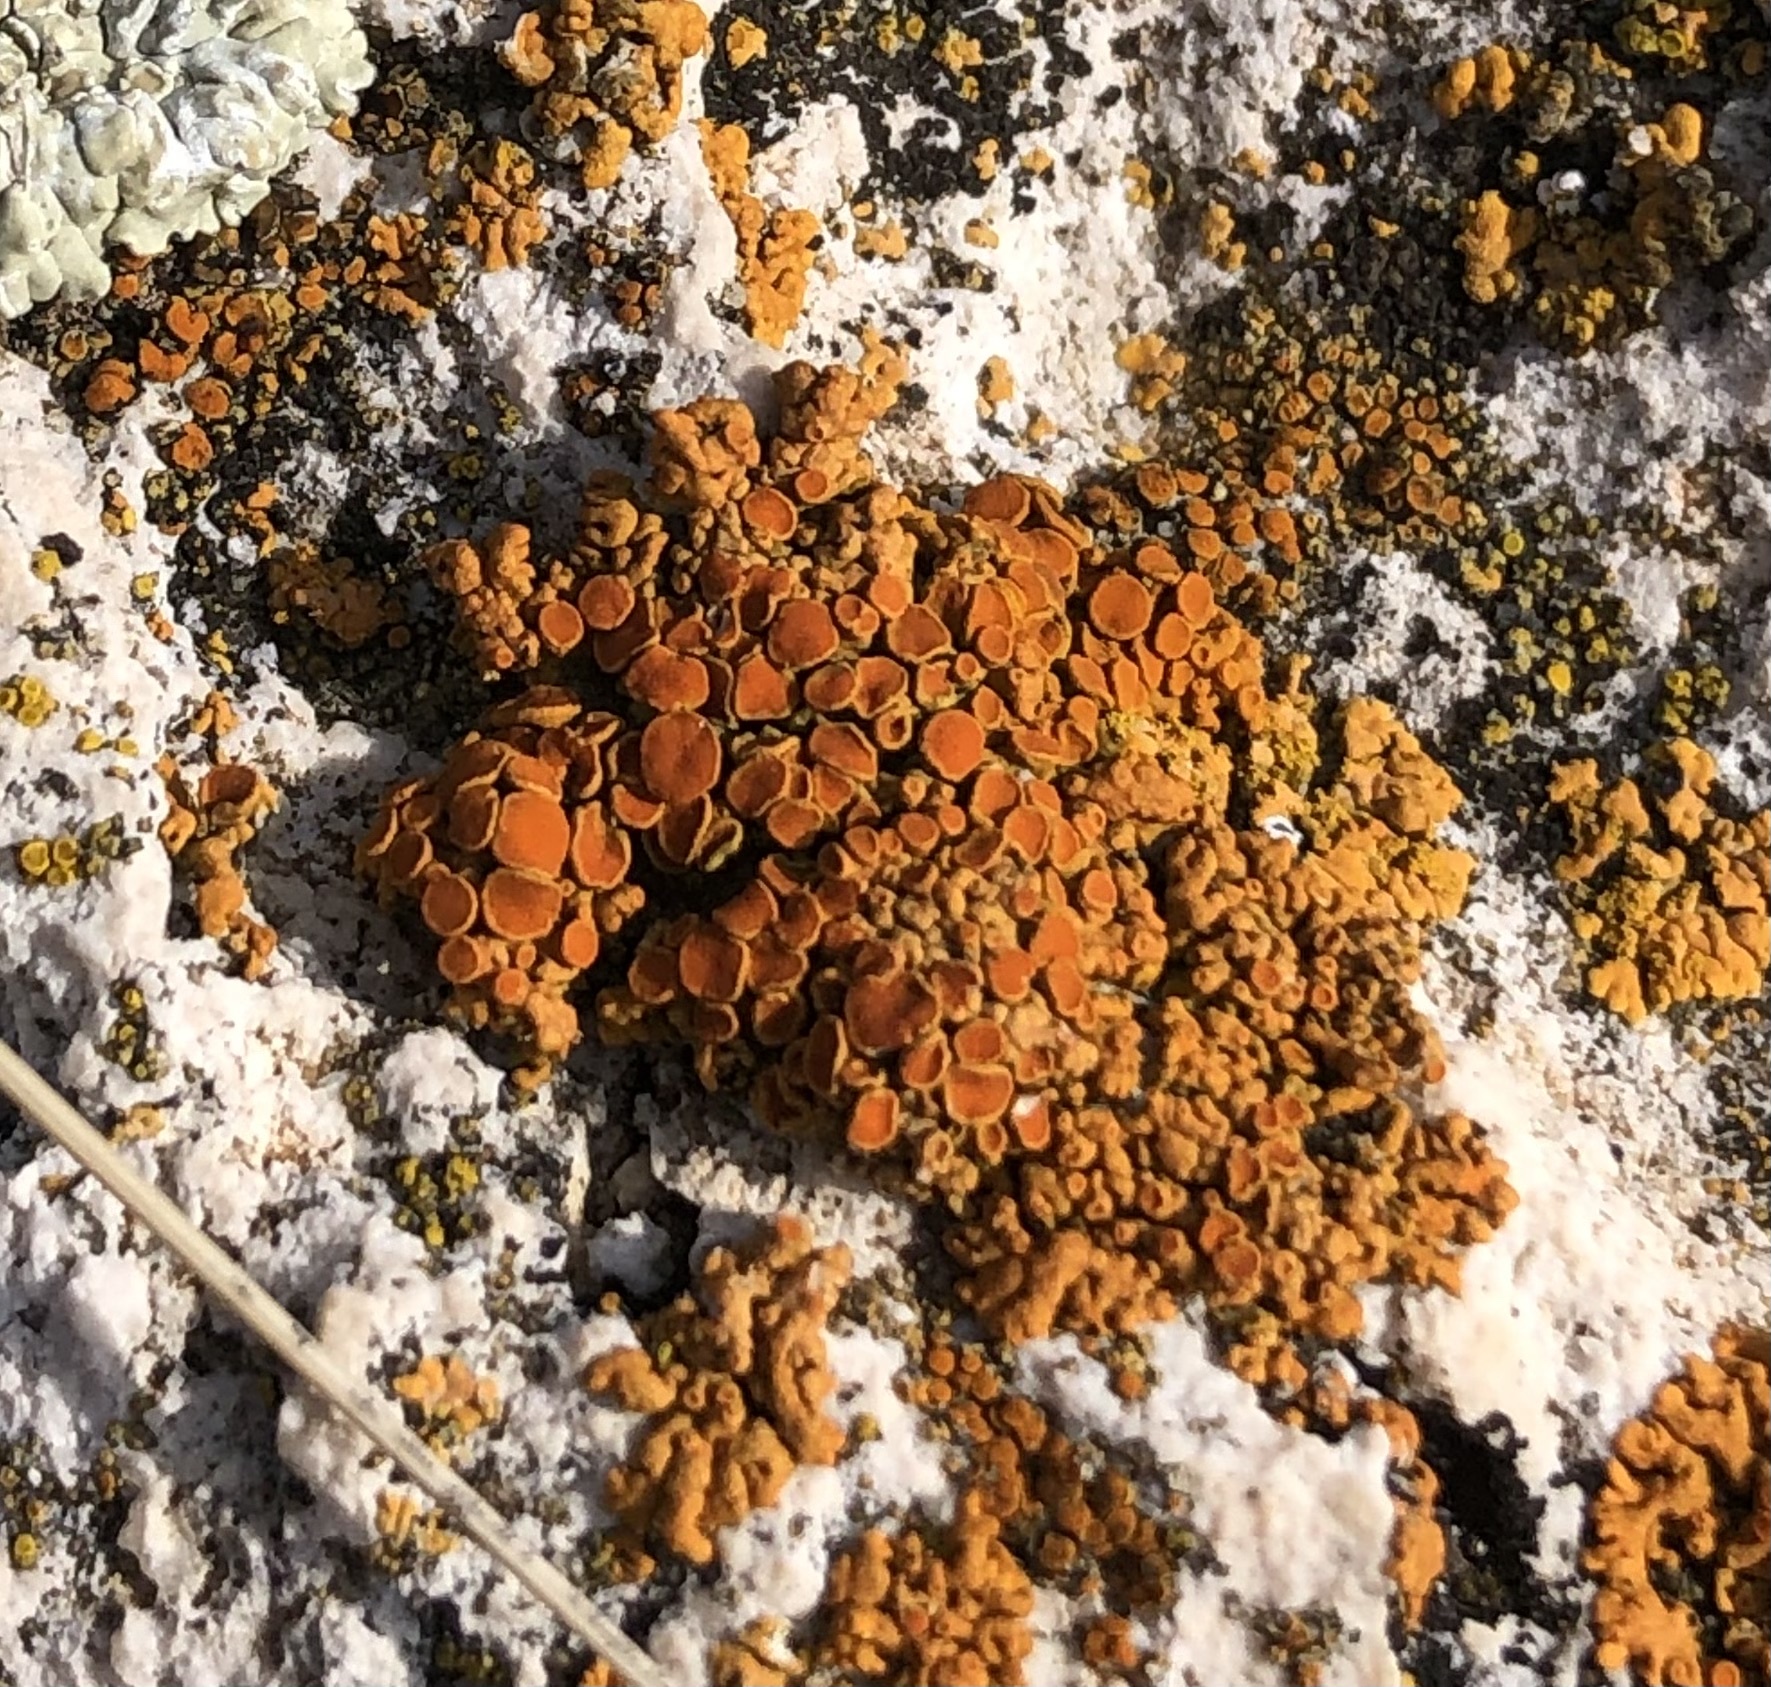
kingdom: Fungi
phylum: Ascomycota
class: Lecanoromycetes
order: Teloschistales
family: Teloschistaceae
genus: Xanthoria
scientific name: Xanthoria elegans
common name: Elegant sunburst lichen
